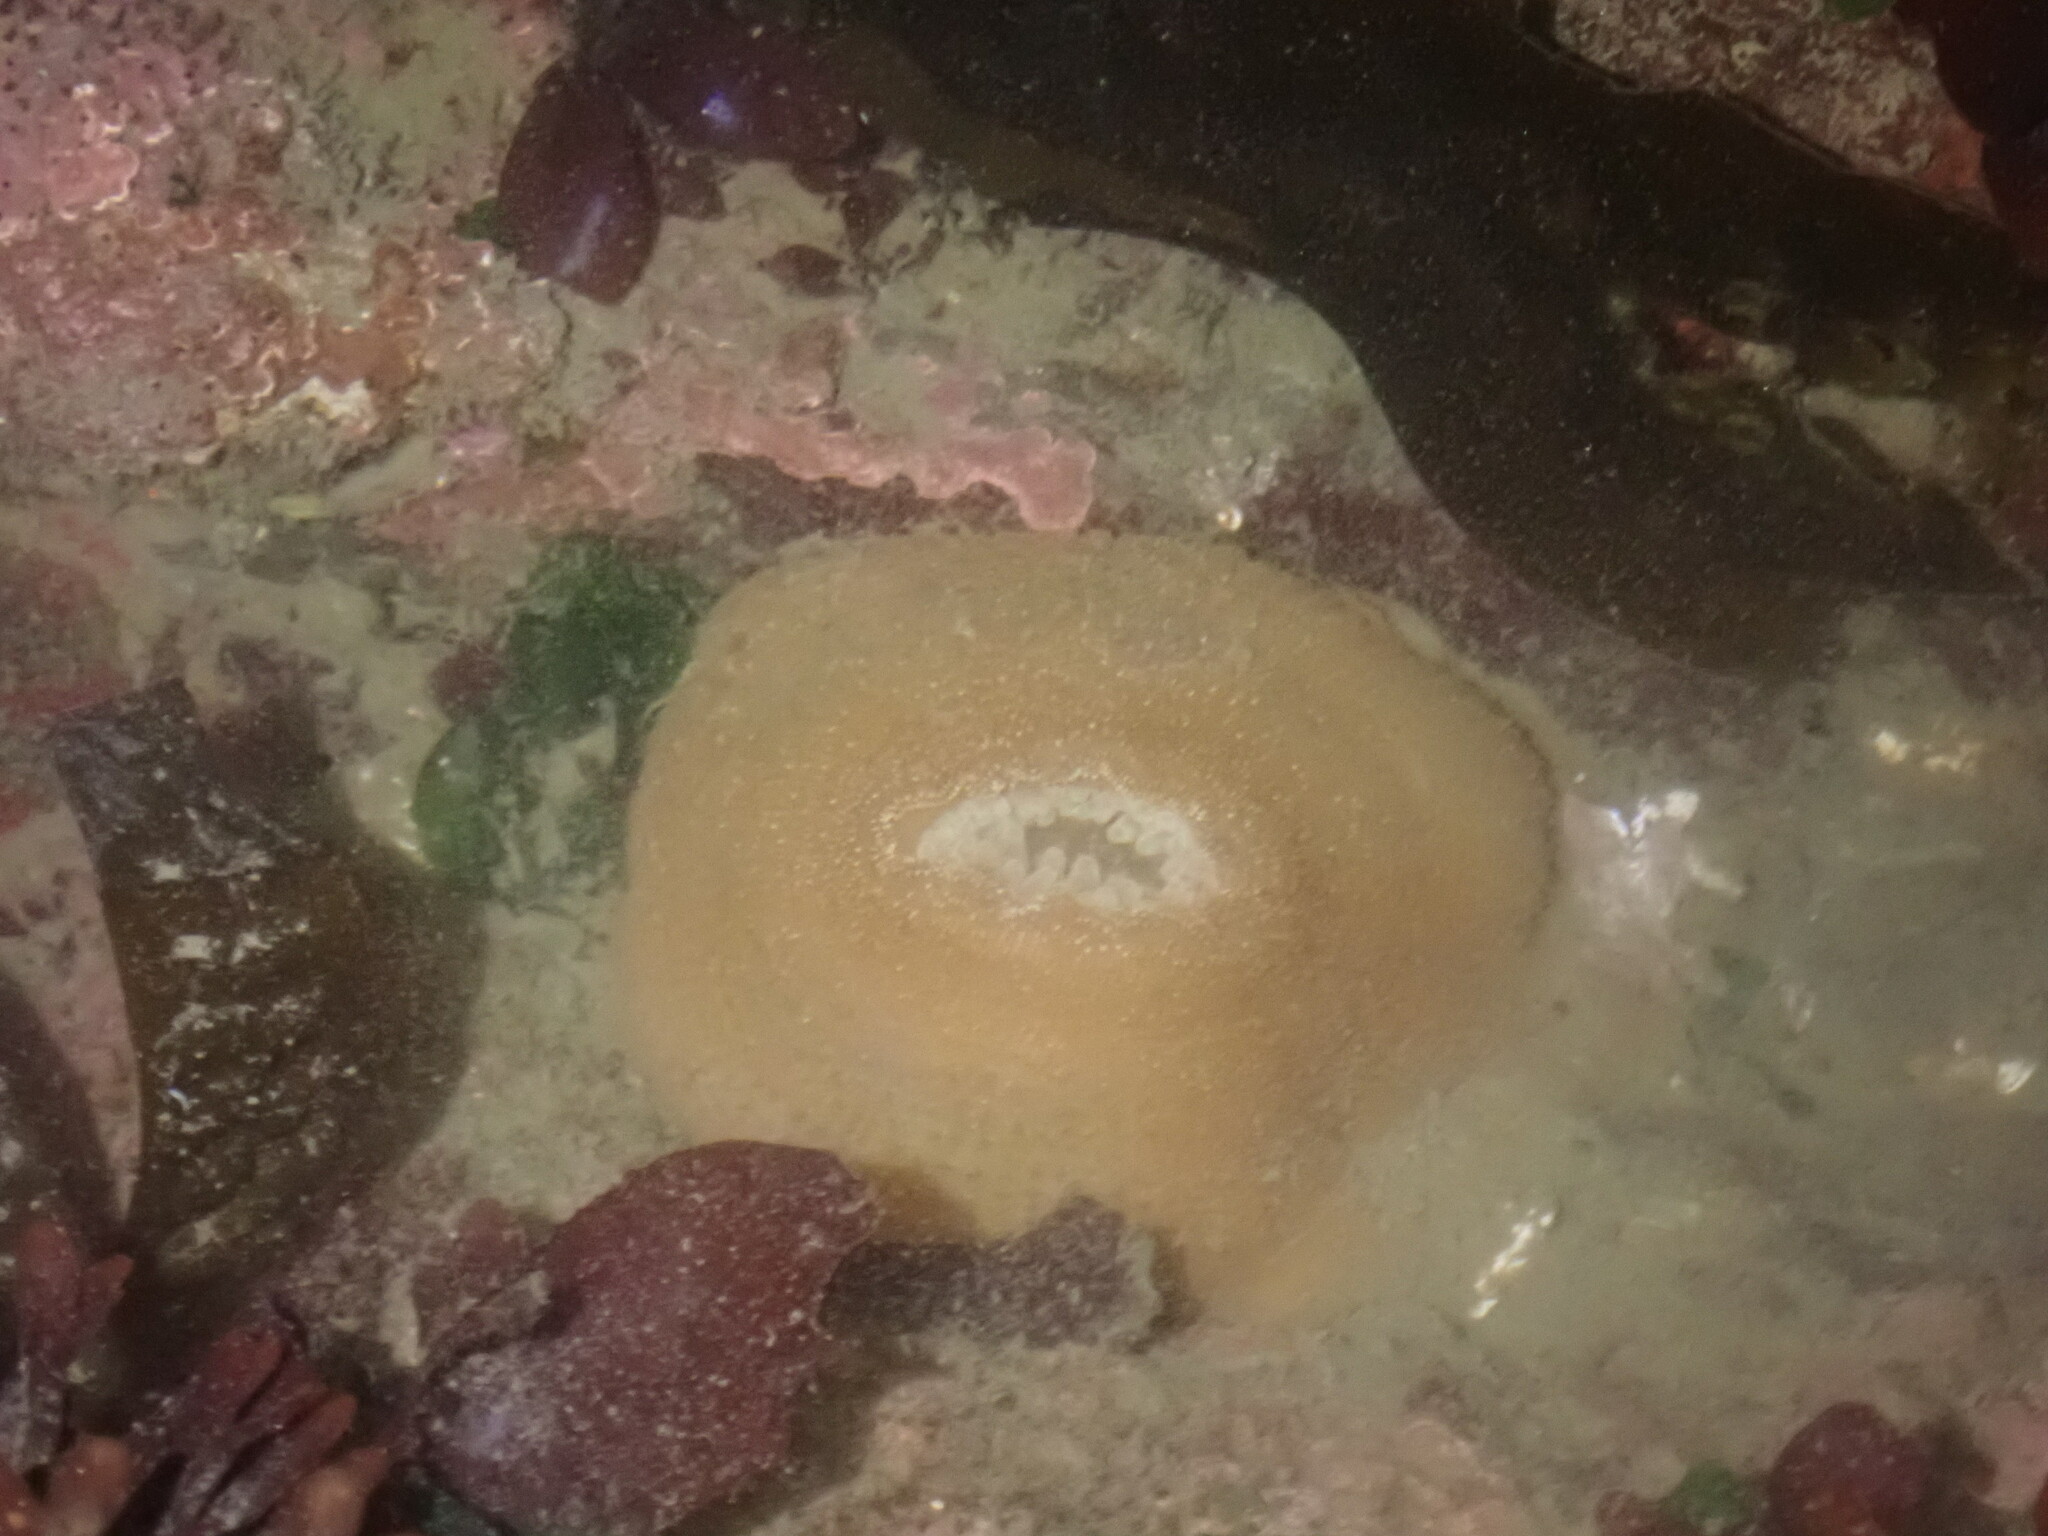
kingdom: Animalia
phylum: Cnidaria
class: Anthozoa
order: Actiniaria
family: Actiniidae
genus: Urticina
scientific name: Urticina grebelnyi
